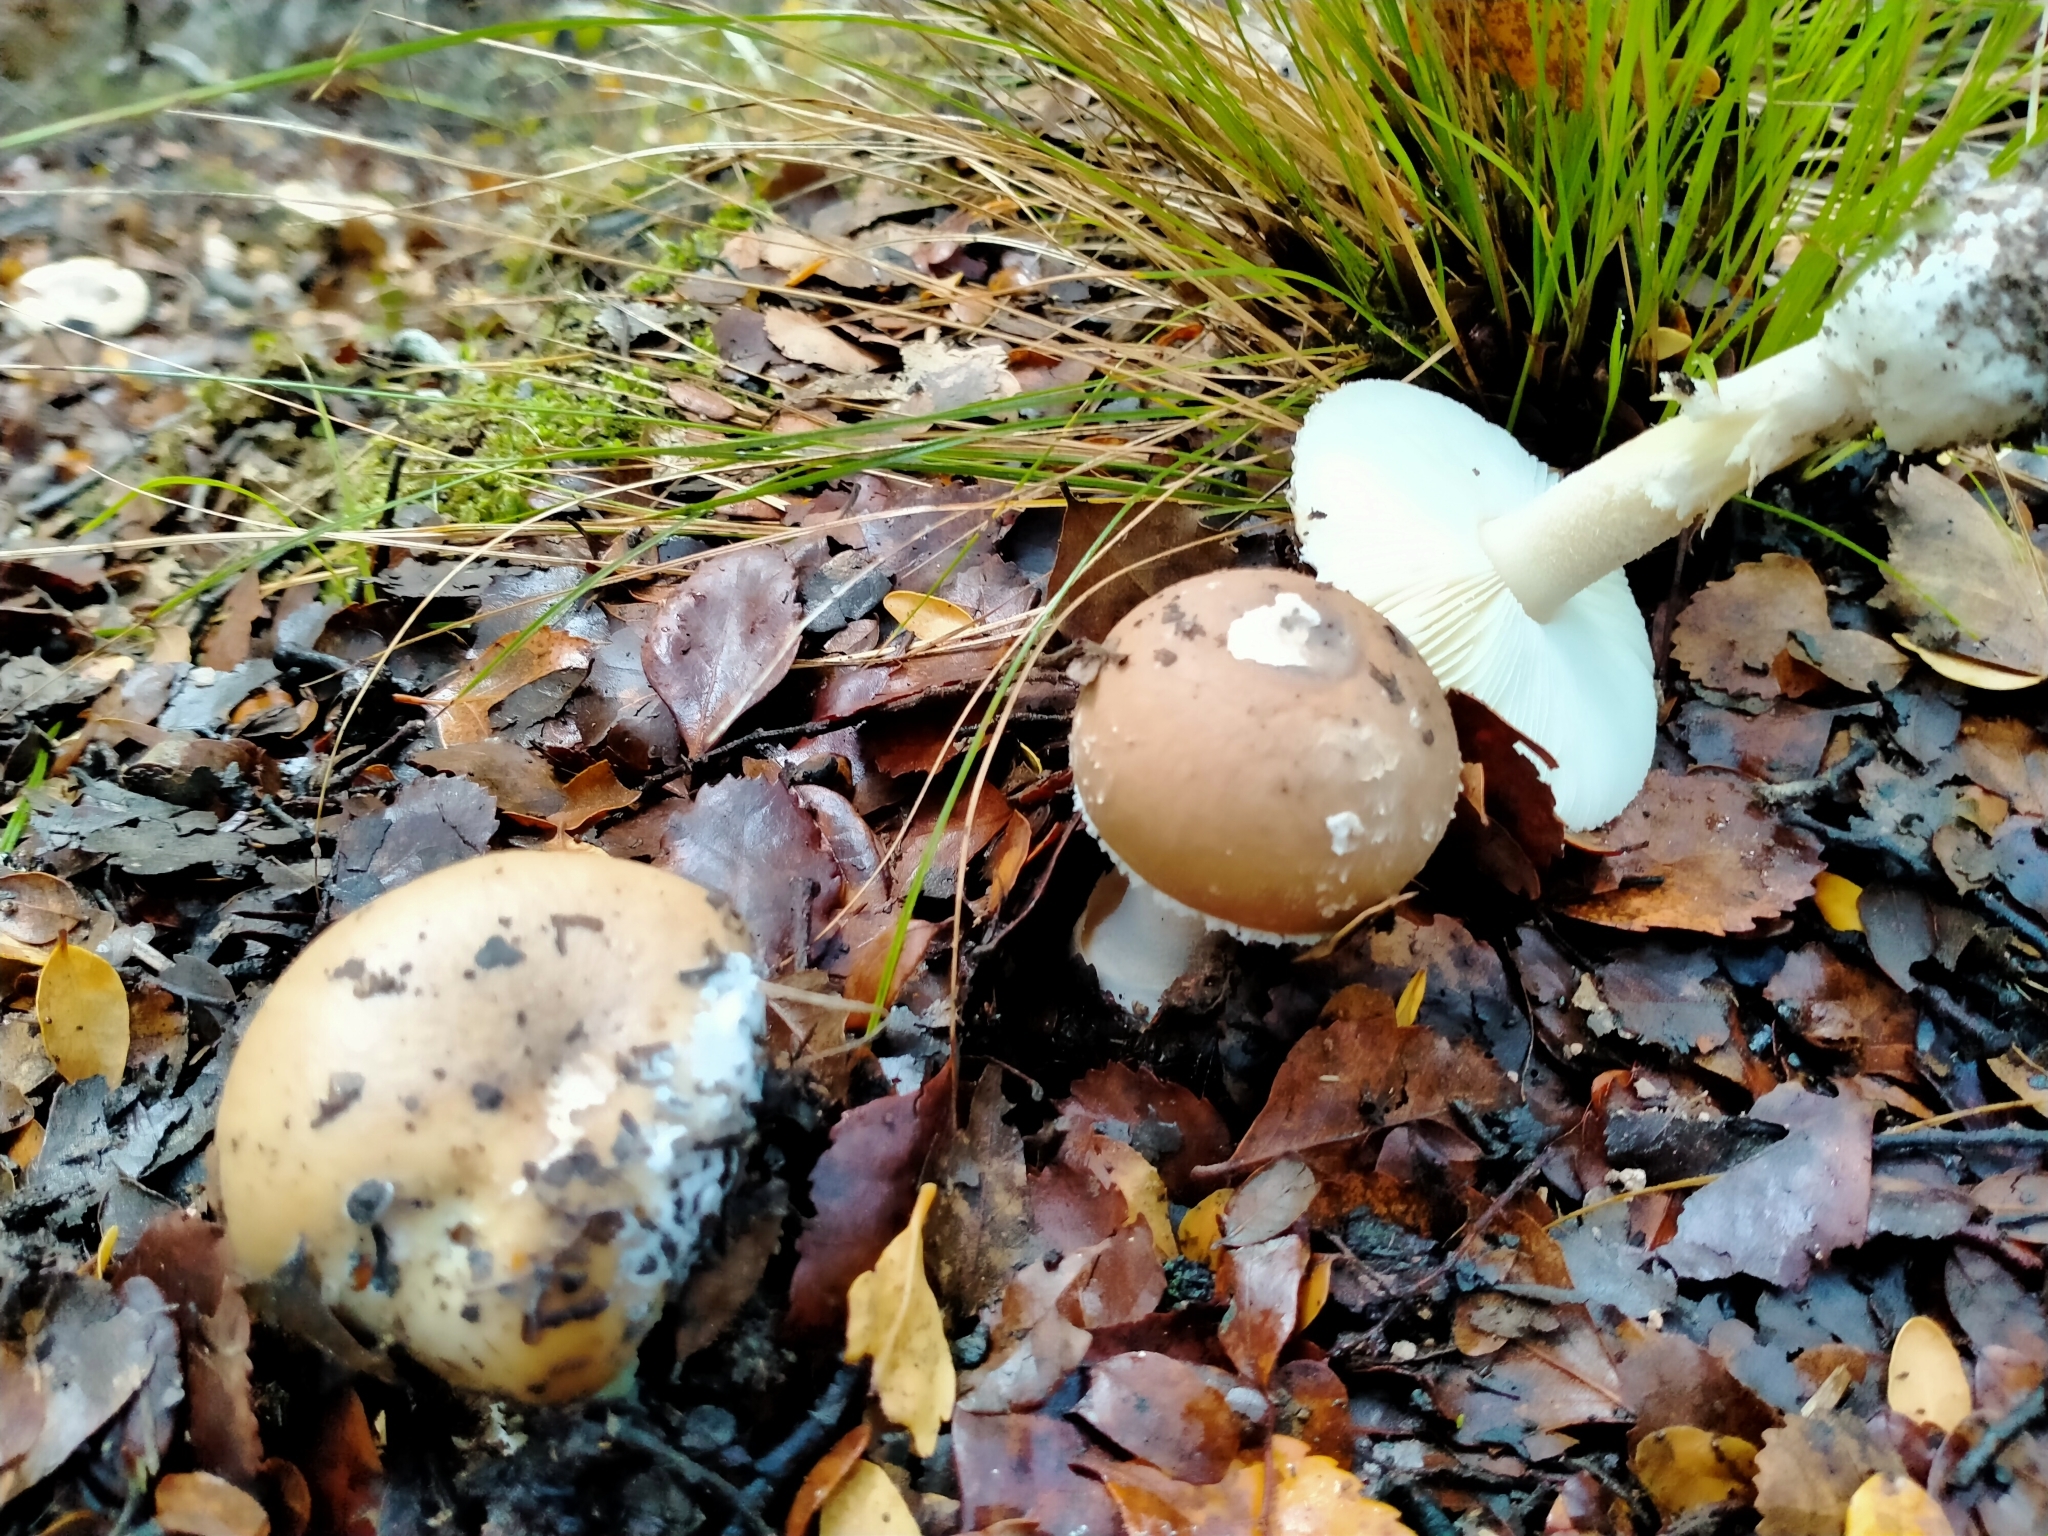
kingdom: Fungi
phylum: Basidiomycota
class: Agaricomycetes
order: Agaricales
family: Amanitaceae
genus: Amanita
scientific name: Amanita taiepa
